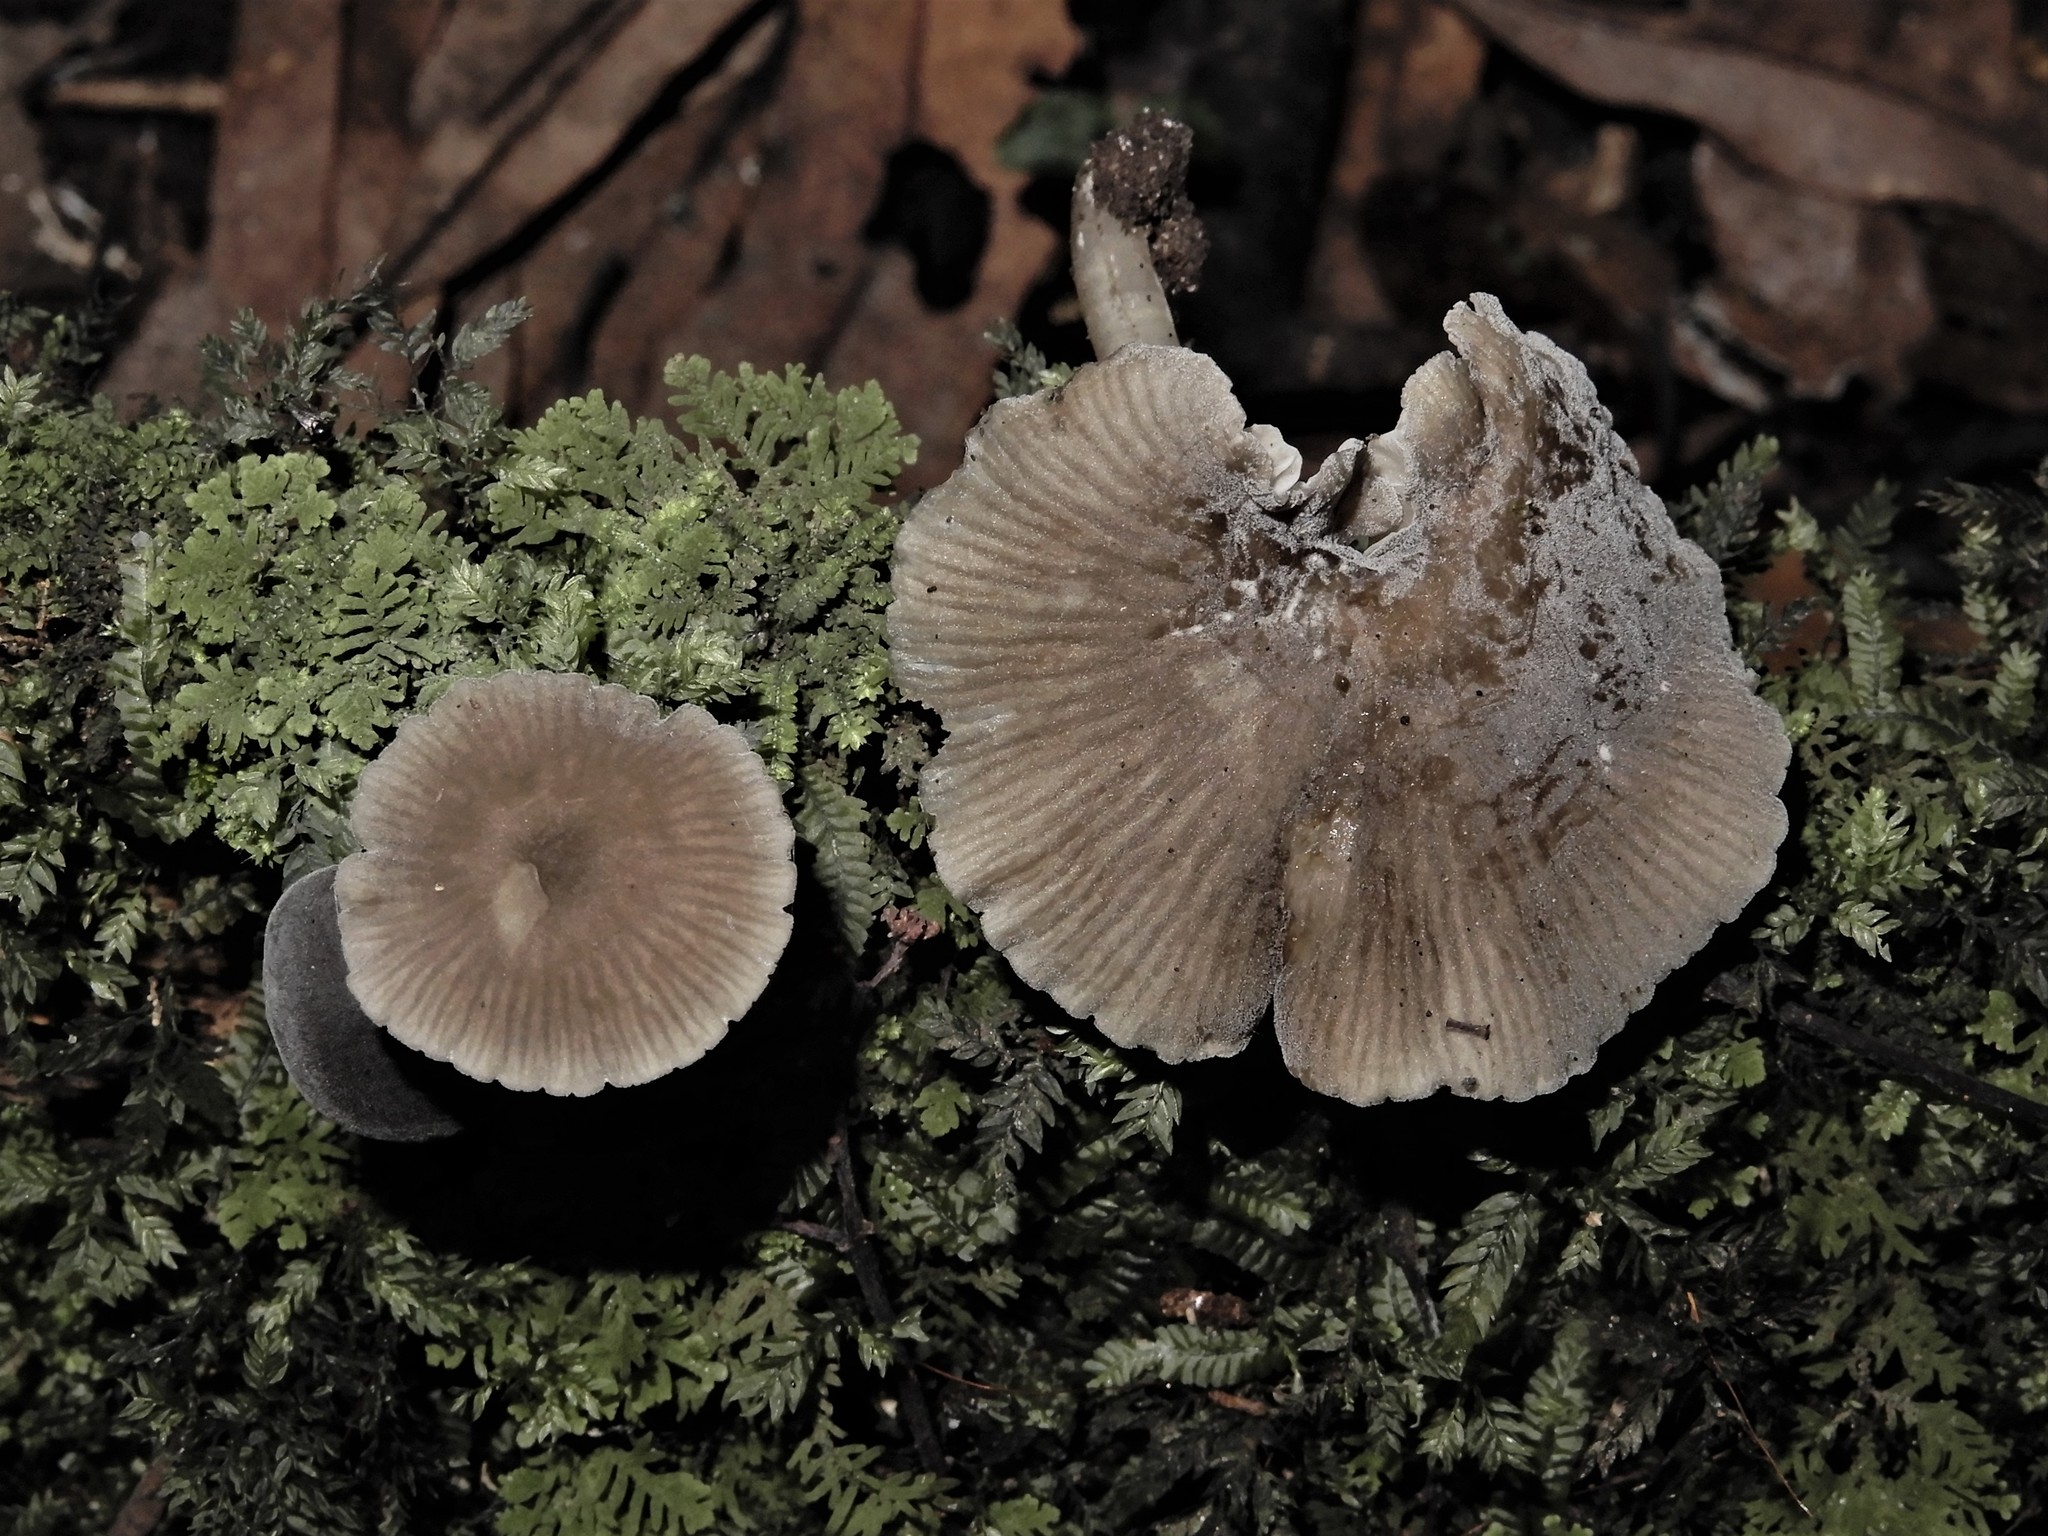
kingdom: Fungi
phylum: Basidiomycota
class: Agaricomycetes
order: Agaricales
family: Marasmiaceae
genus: Clitocybula
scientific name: Clitocybula
